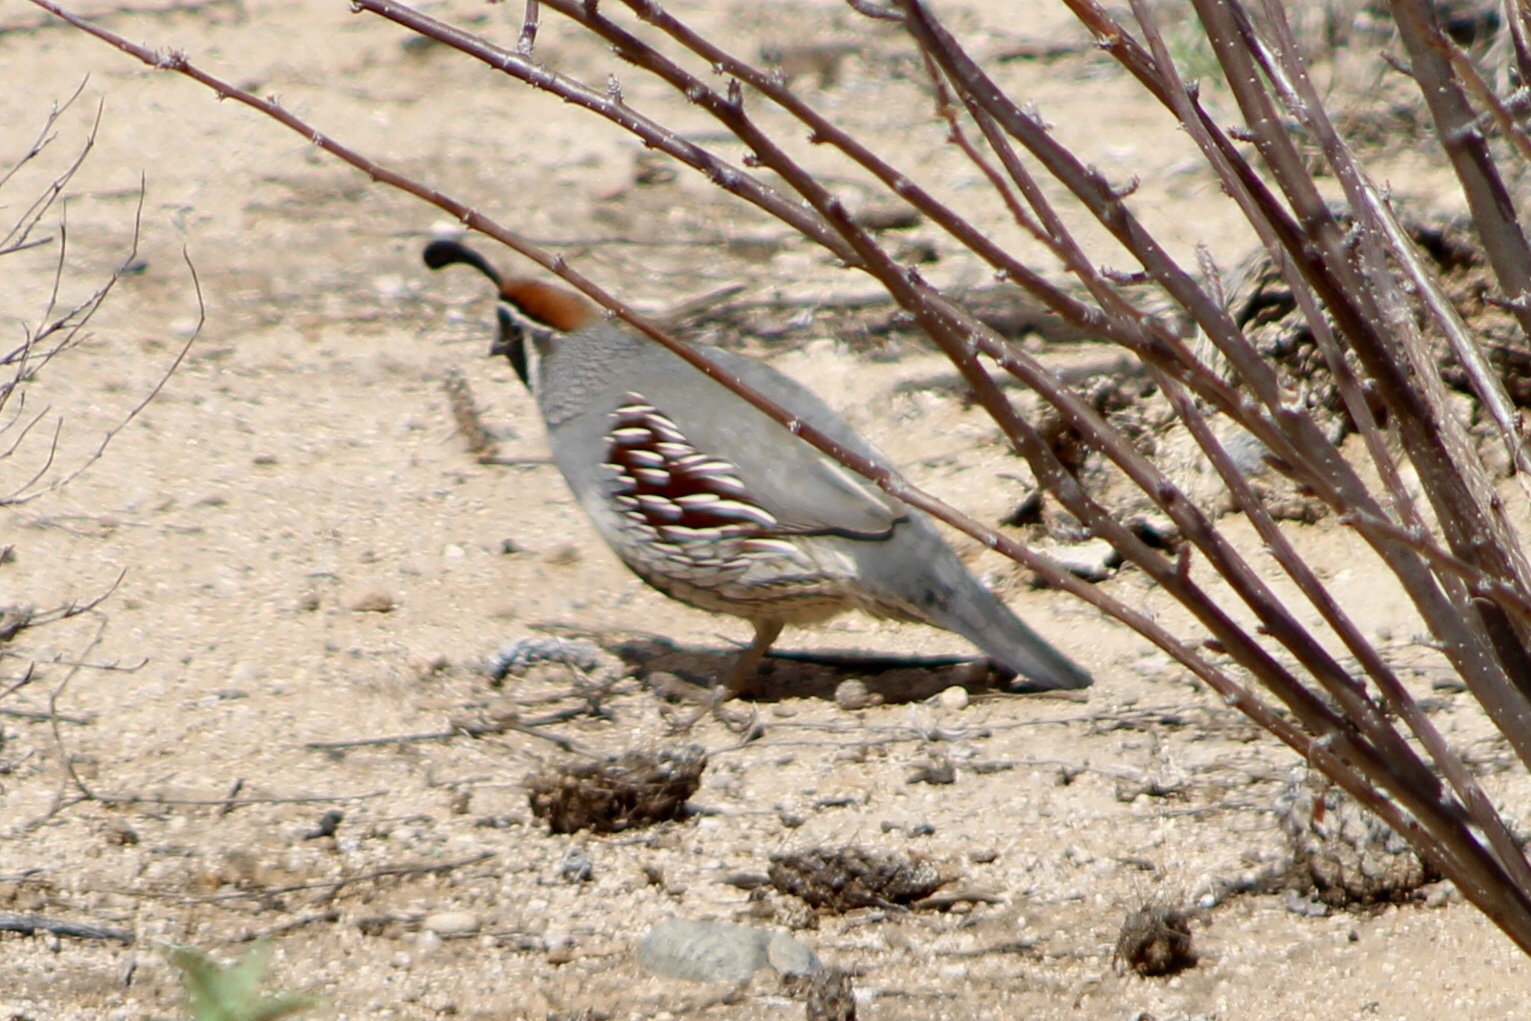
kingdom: Animalia
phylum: Chordata
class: Aves
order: Galliformes
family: Odontophoridae
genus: Callipepla
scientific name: Callipepla gambelii
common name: Gambel's quail
